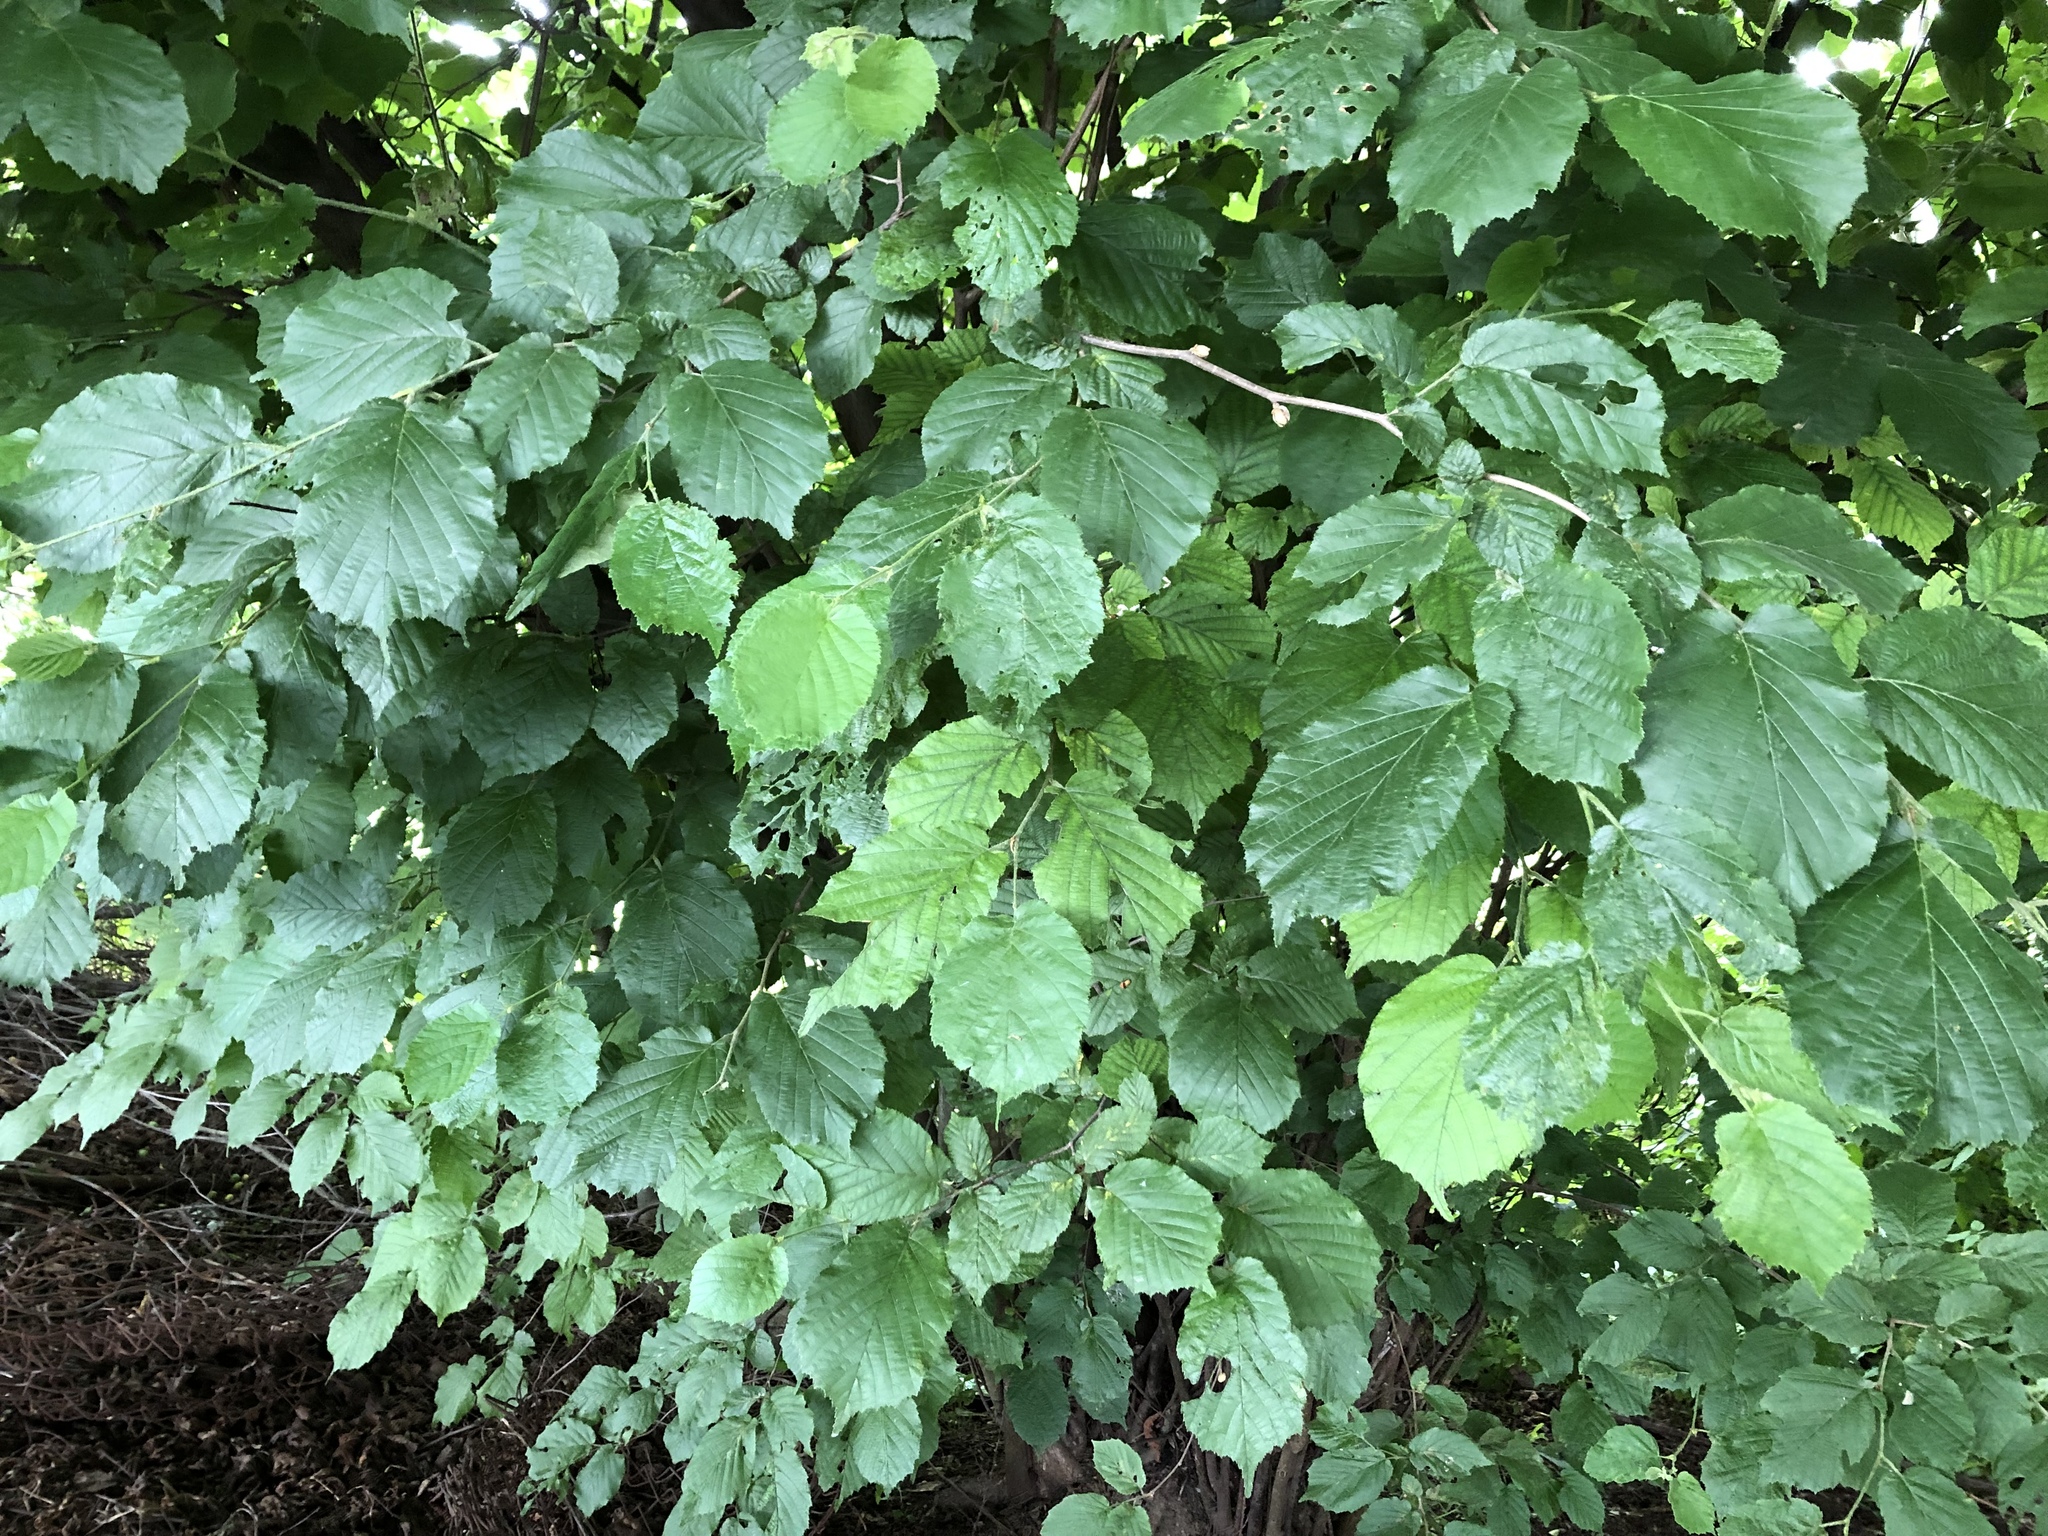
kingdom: Plantae
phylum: Tracheophyta
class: Magnoliopsida
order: Fagales
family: Betulaceae
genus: Corylus
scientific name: Corylus avellana
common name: European hazel
